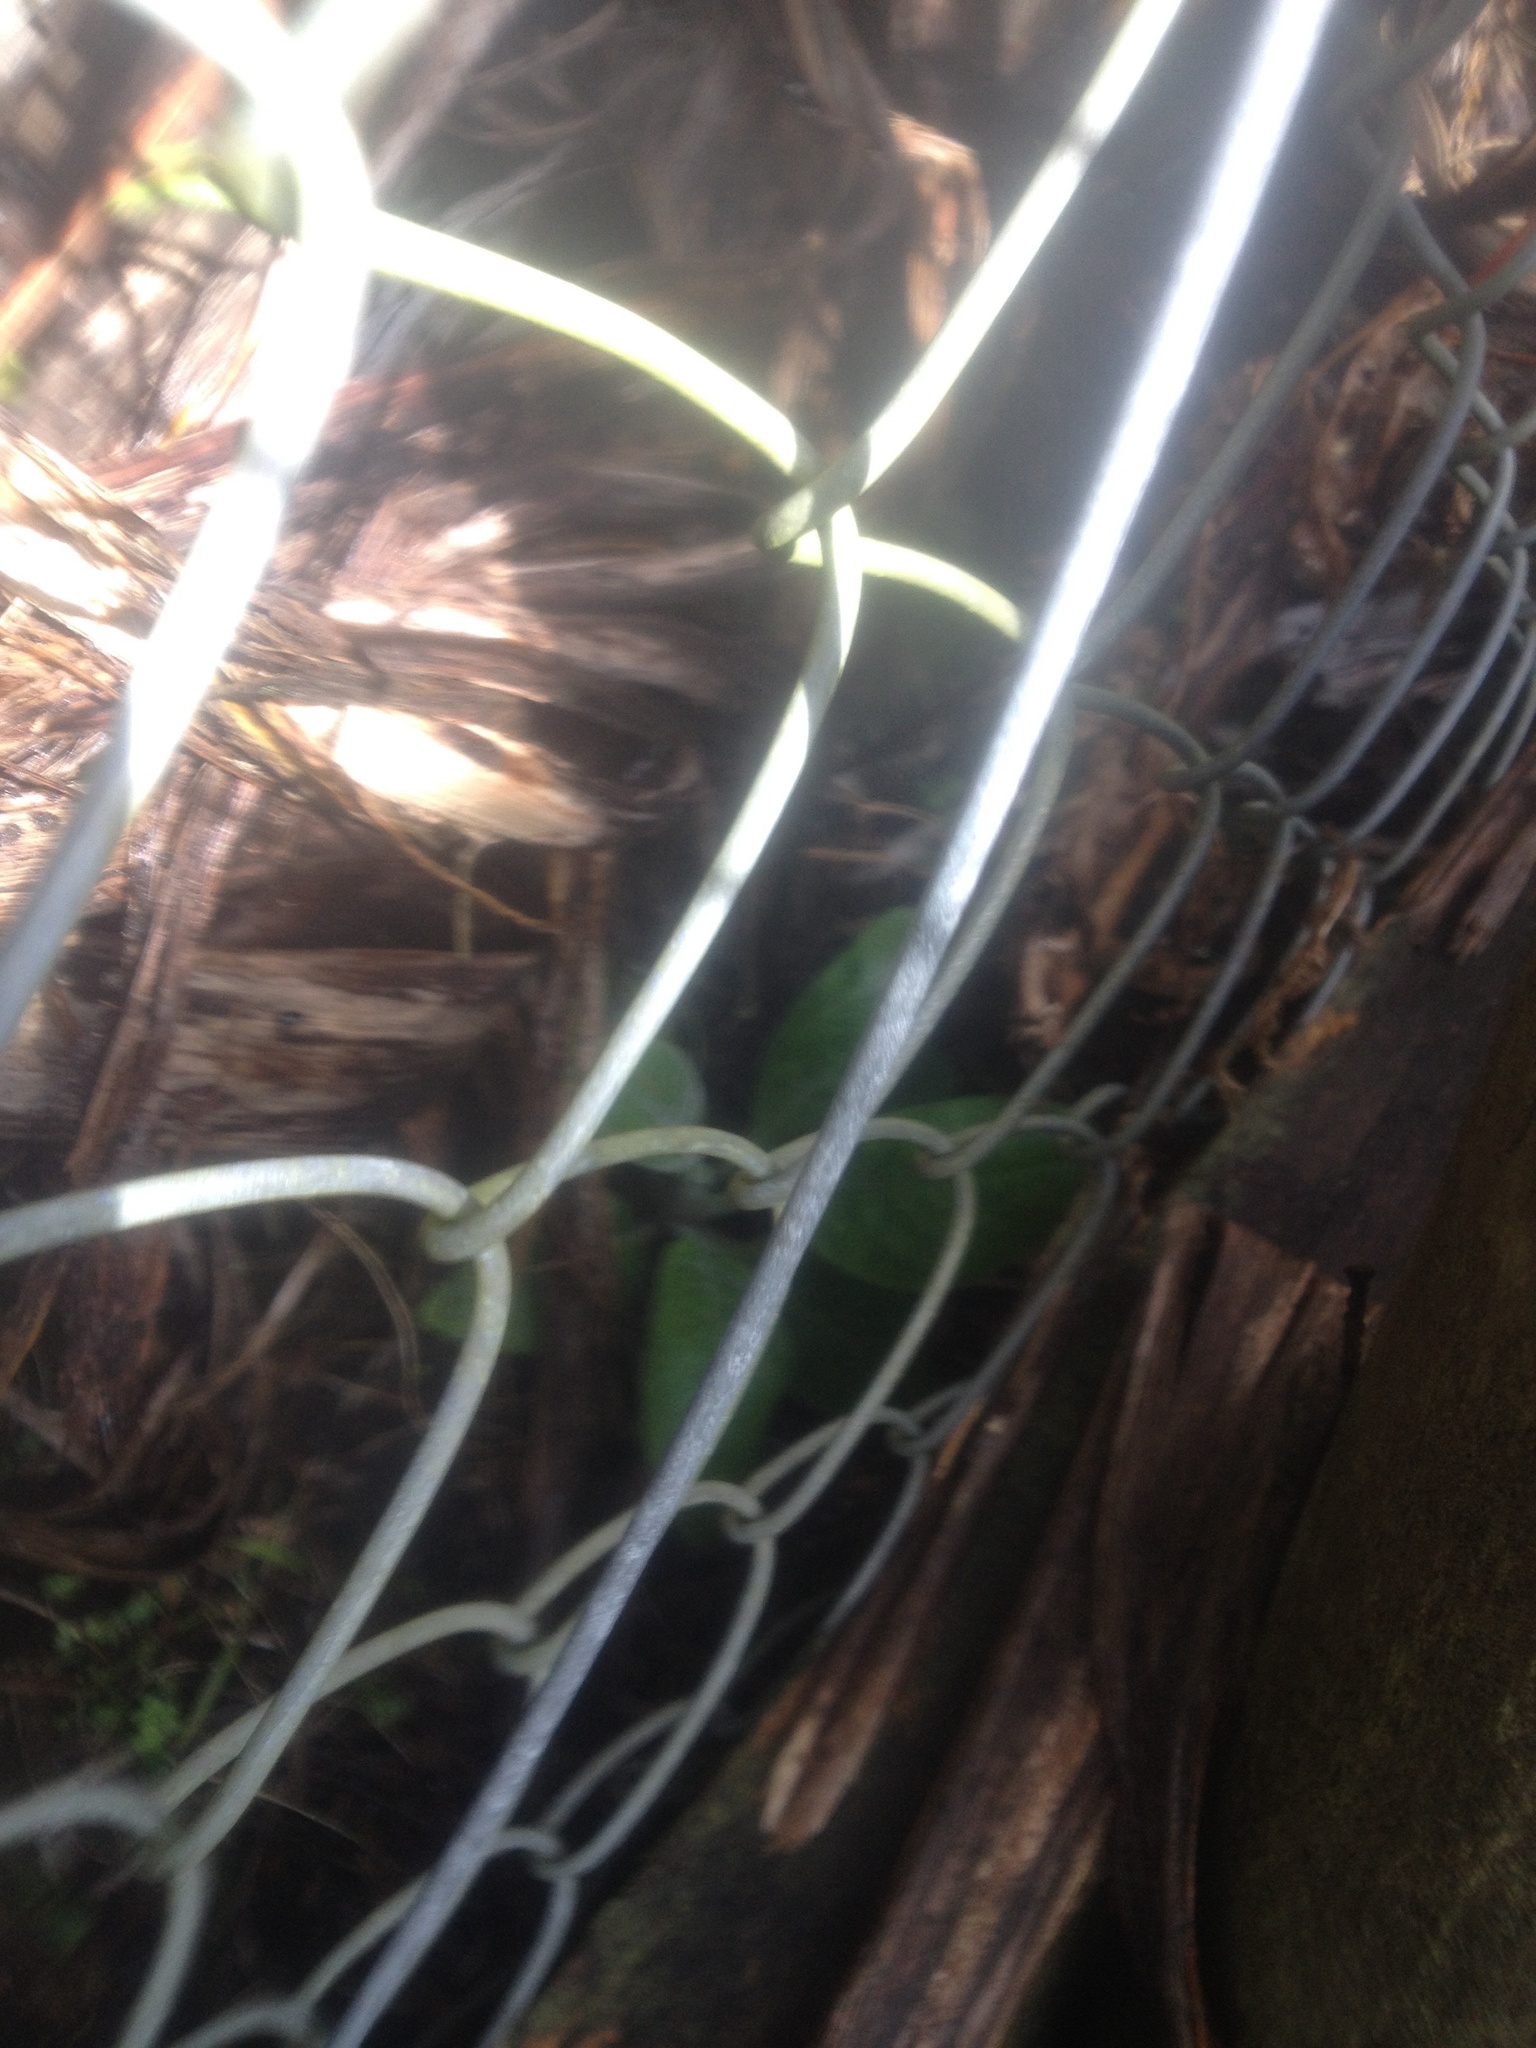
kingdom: Plantae
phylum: Tracheophyta
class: Magnoliopsida
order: Lamiales
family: Plantaginaceae
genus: Digitalis
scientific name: Digitalis purpurea
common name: Foxglove
